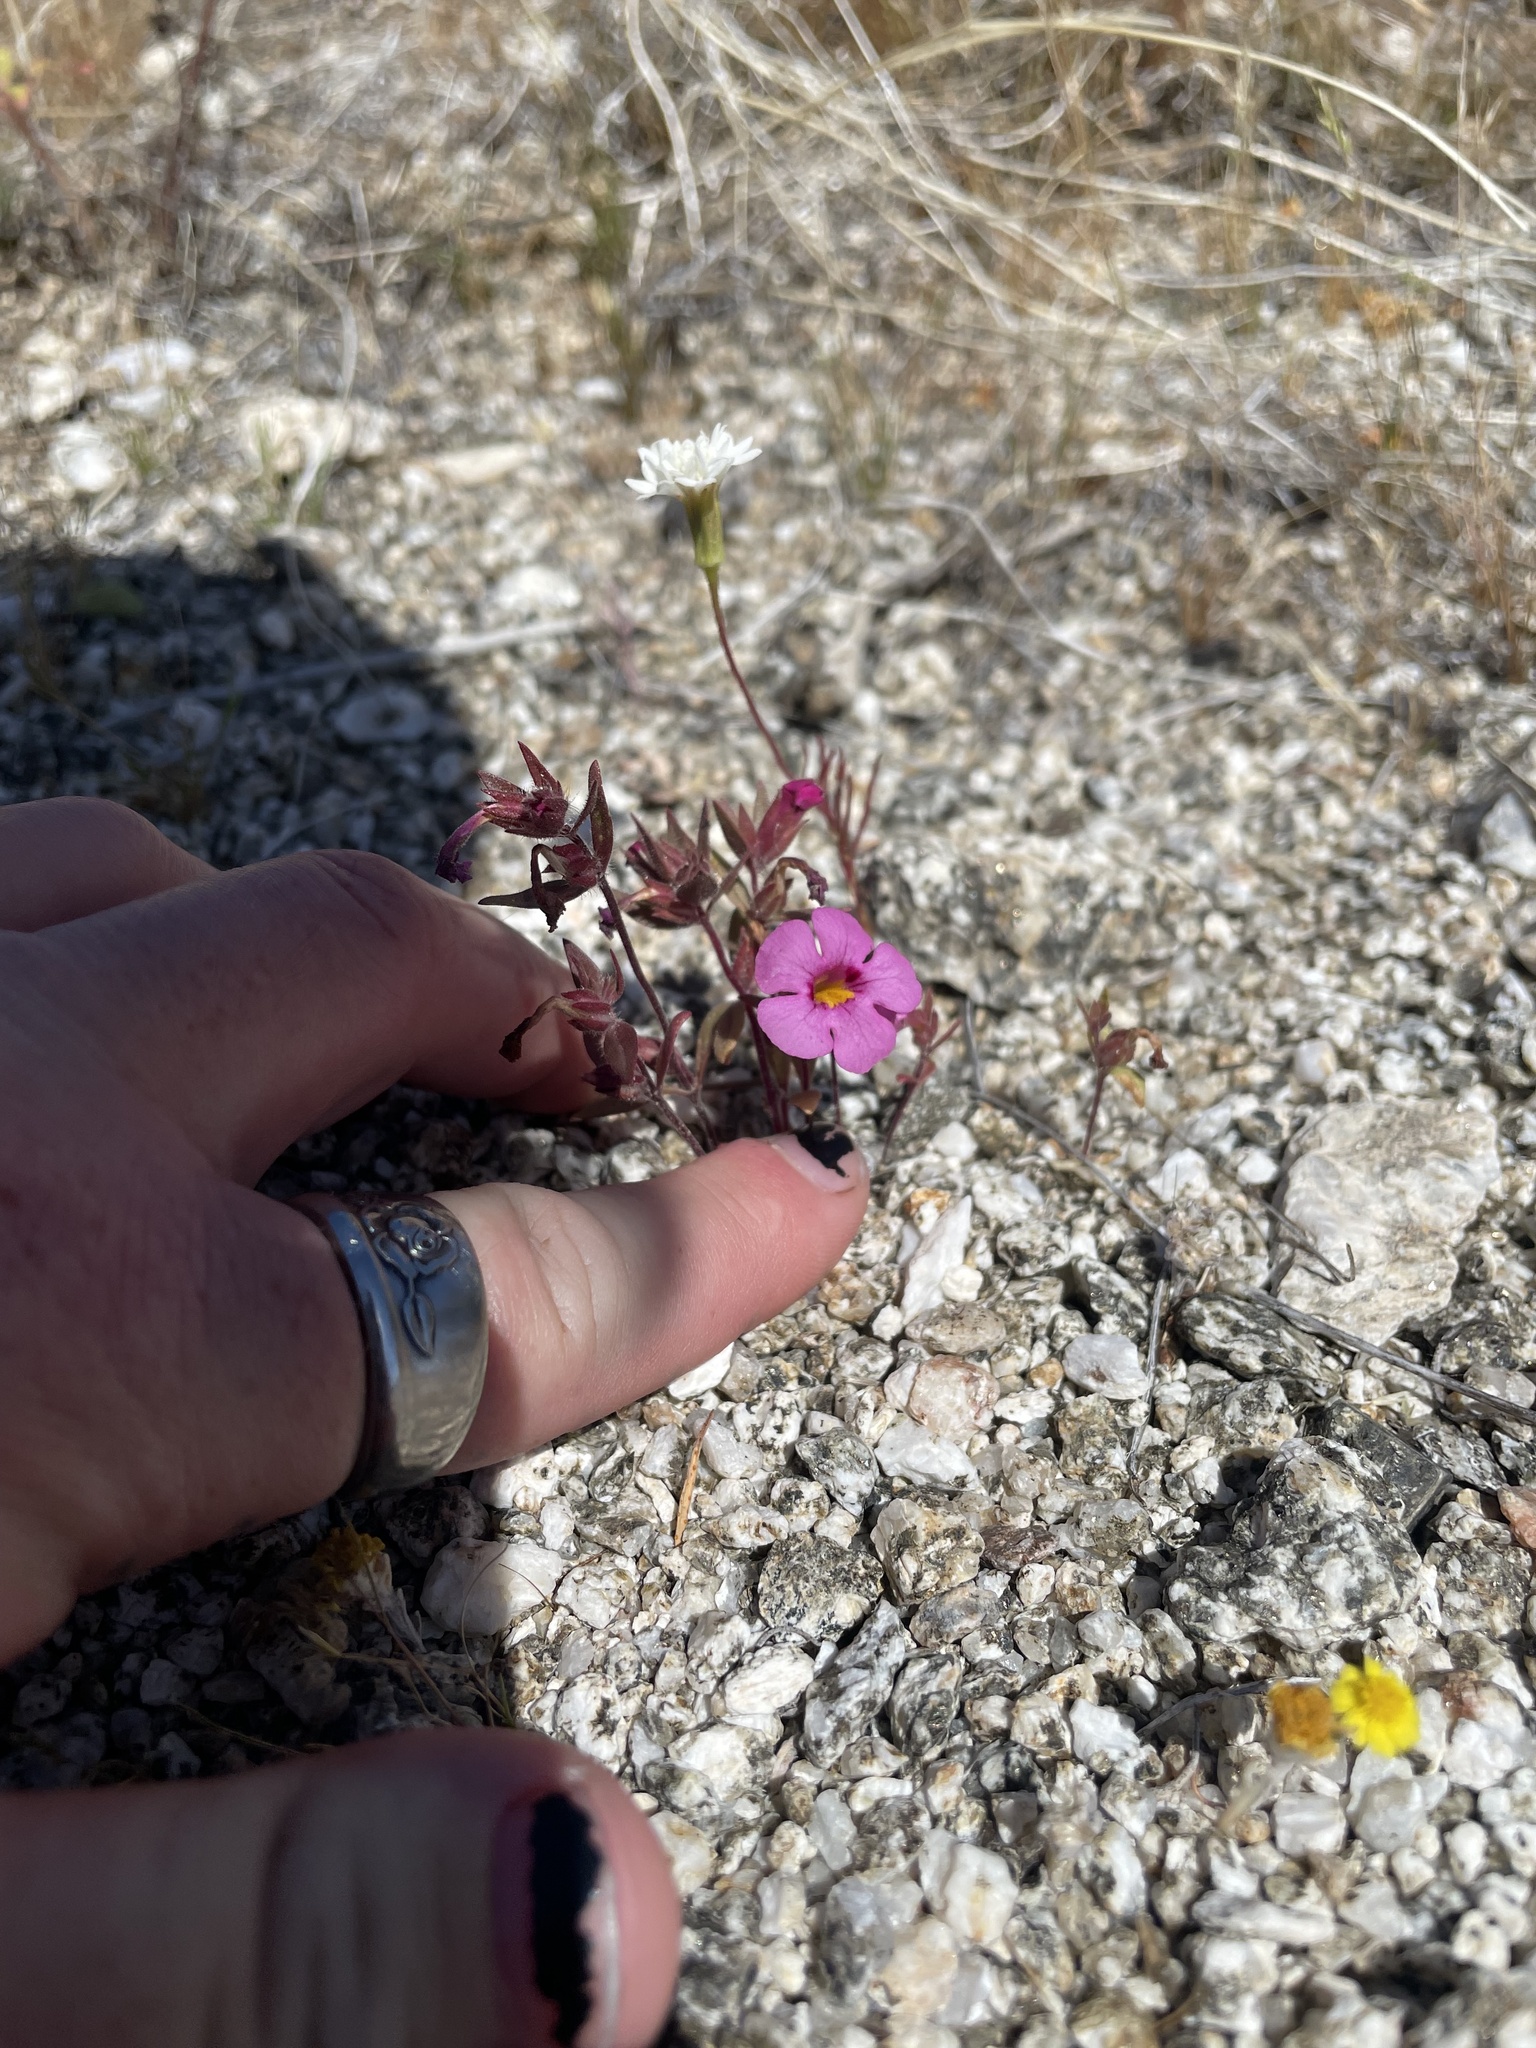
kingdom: Plantae
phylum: Tracheophyta
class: Magnoliopsida
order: Lamiales
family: Phrymaceae
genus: Diplacus
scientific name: Diplacus bigelovii
